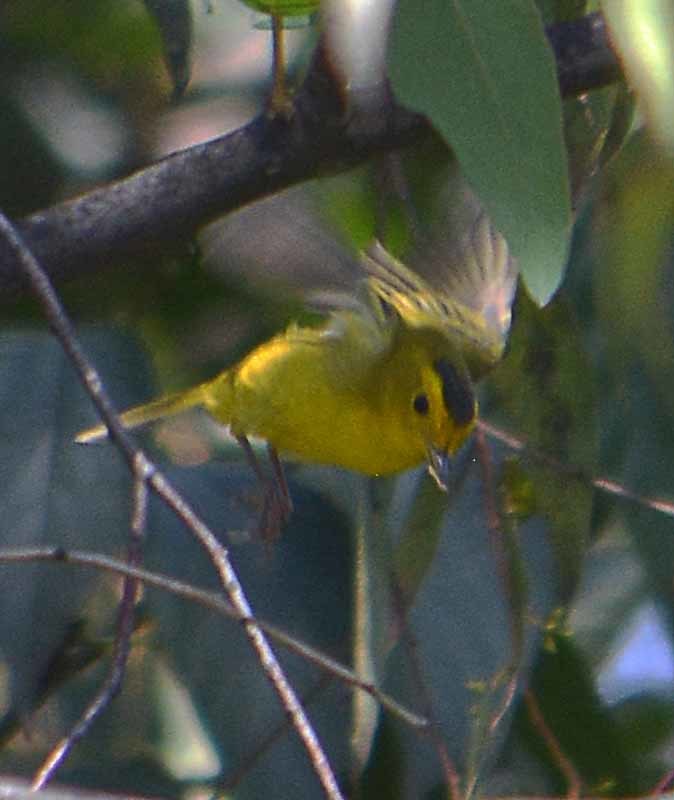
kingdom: Animalia
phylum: Chordata
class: Aves
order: Passeriformes
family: Parulidae
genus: Cardellina
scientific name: Cardellina pusilla
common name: Wilson's warbler
